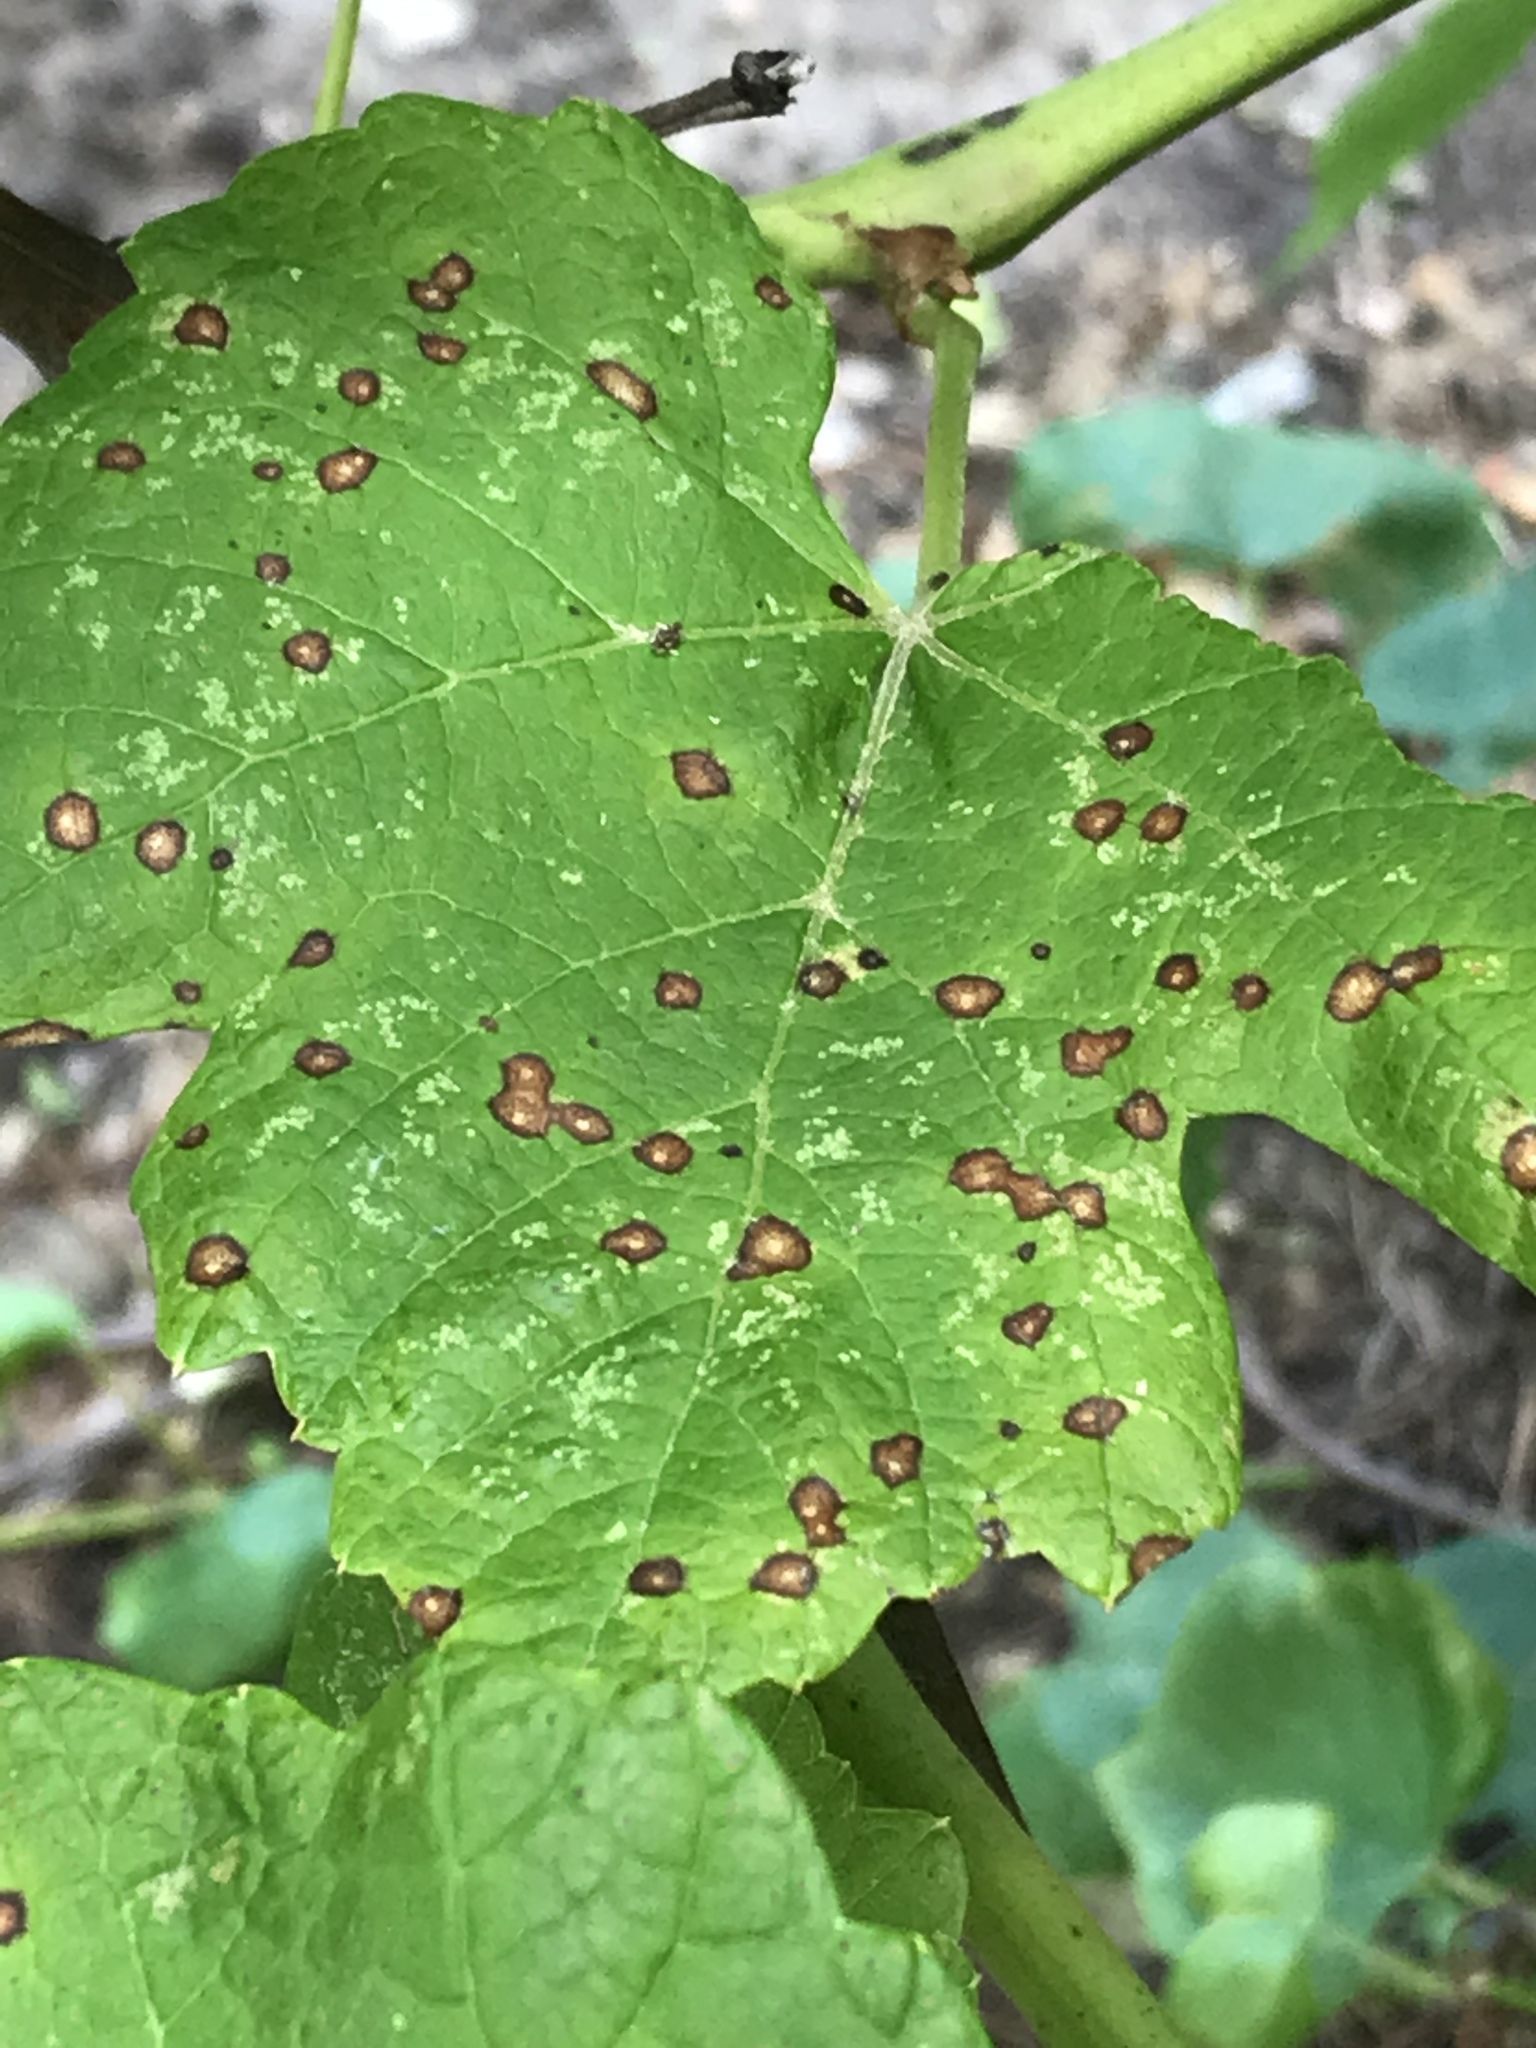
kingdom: Fungi
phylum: Ascomycota
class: Dothideomycetes
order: Botryosphaeriales
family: Phyllostictaceae
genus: Phyllosticta
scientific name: Phyllosticta ampelicida
